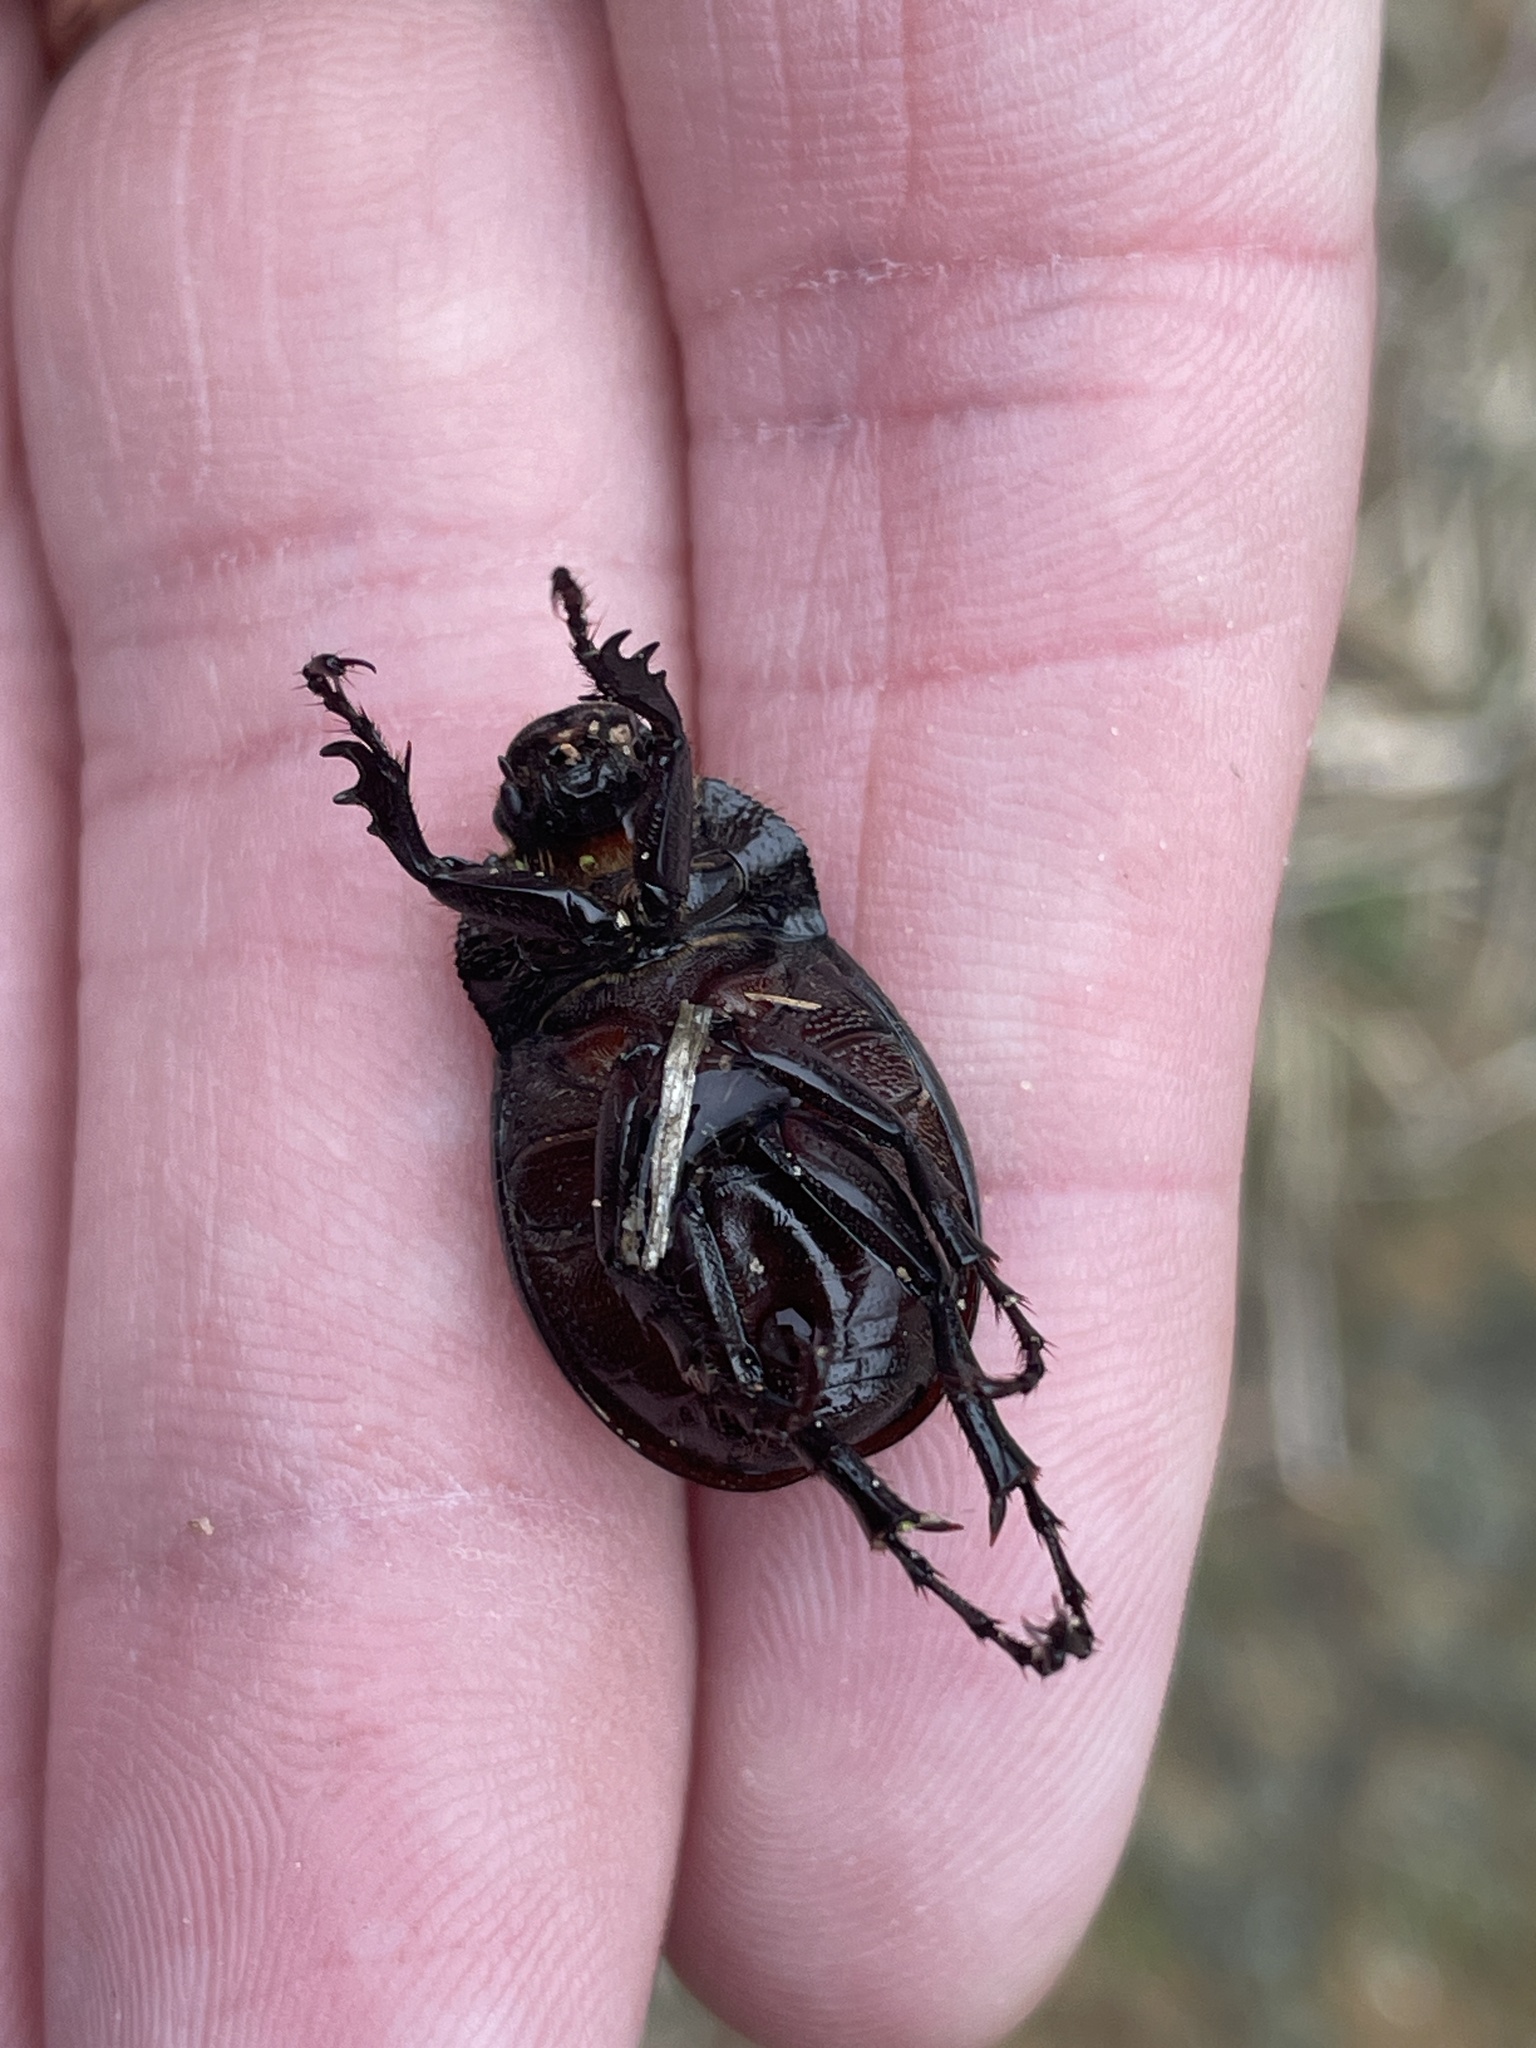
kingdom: Animalia
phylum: Arthropoda
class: Insecta
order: Coleoptera
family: Scarabaeidae
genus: Phyllophaga
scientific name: Phyllophaga cribrosa
